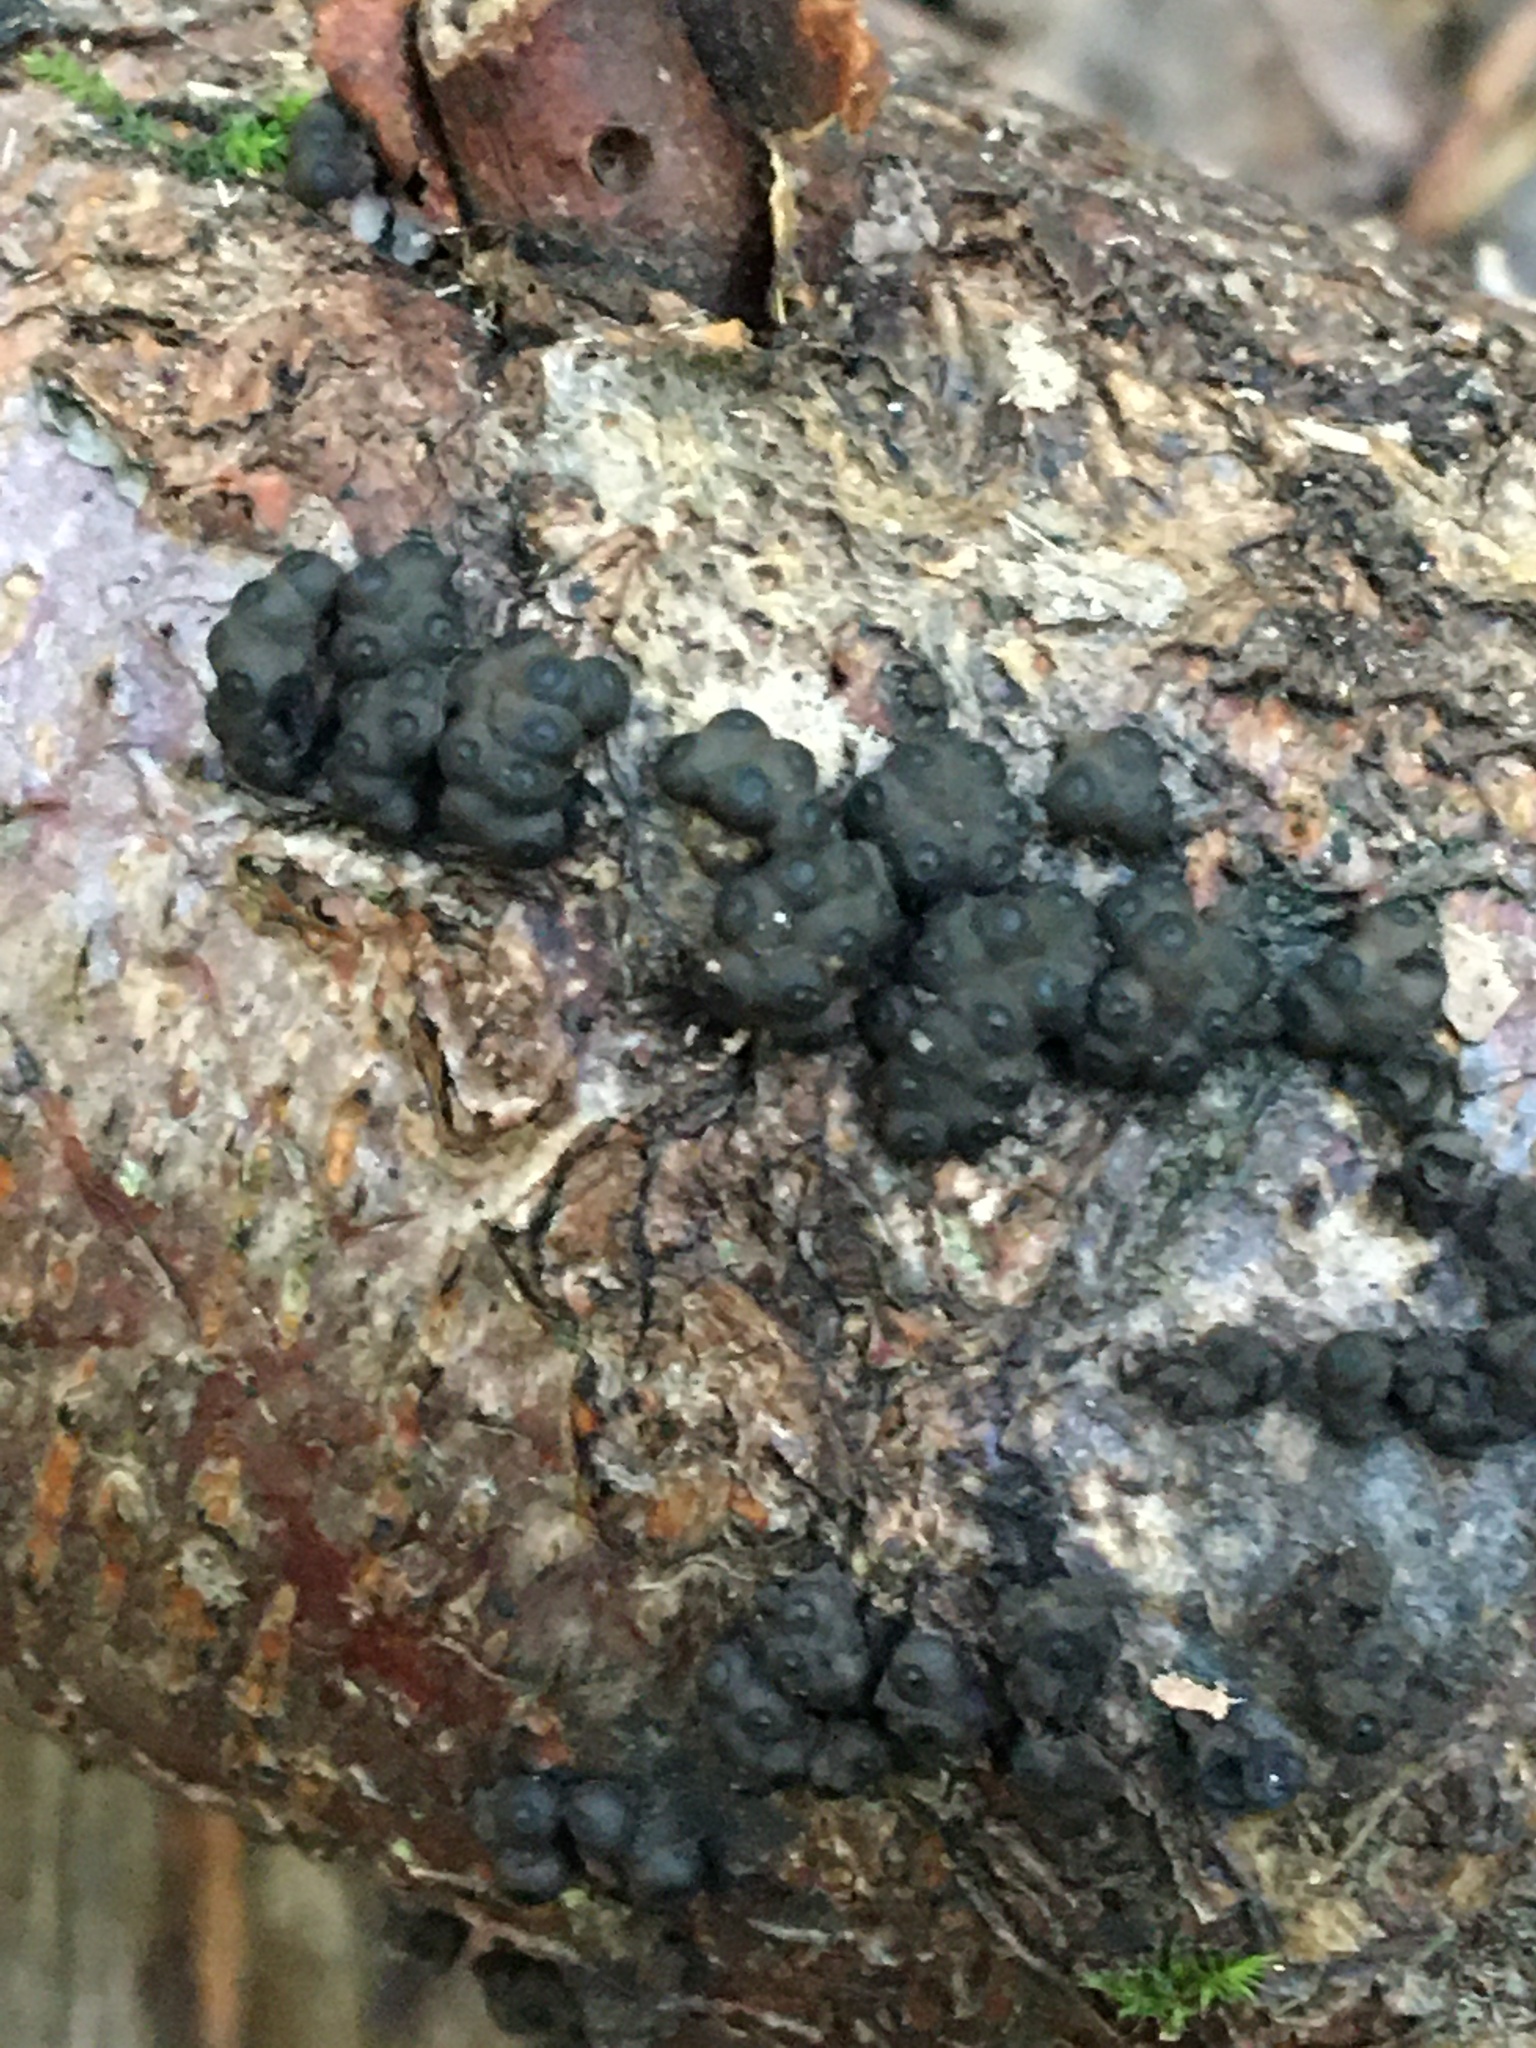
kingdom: Fungi
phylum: Ascomycota
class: Sordariomycetes
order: Xylariales
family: Hypoxylaceae
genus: Annulohypoxylon
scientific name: Annulohypoxylon bovei
